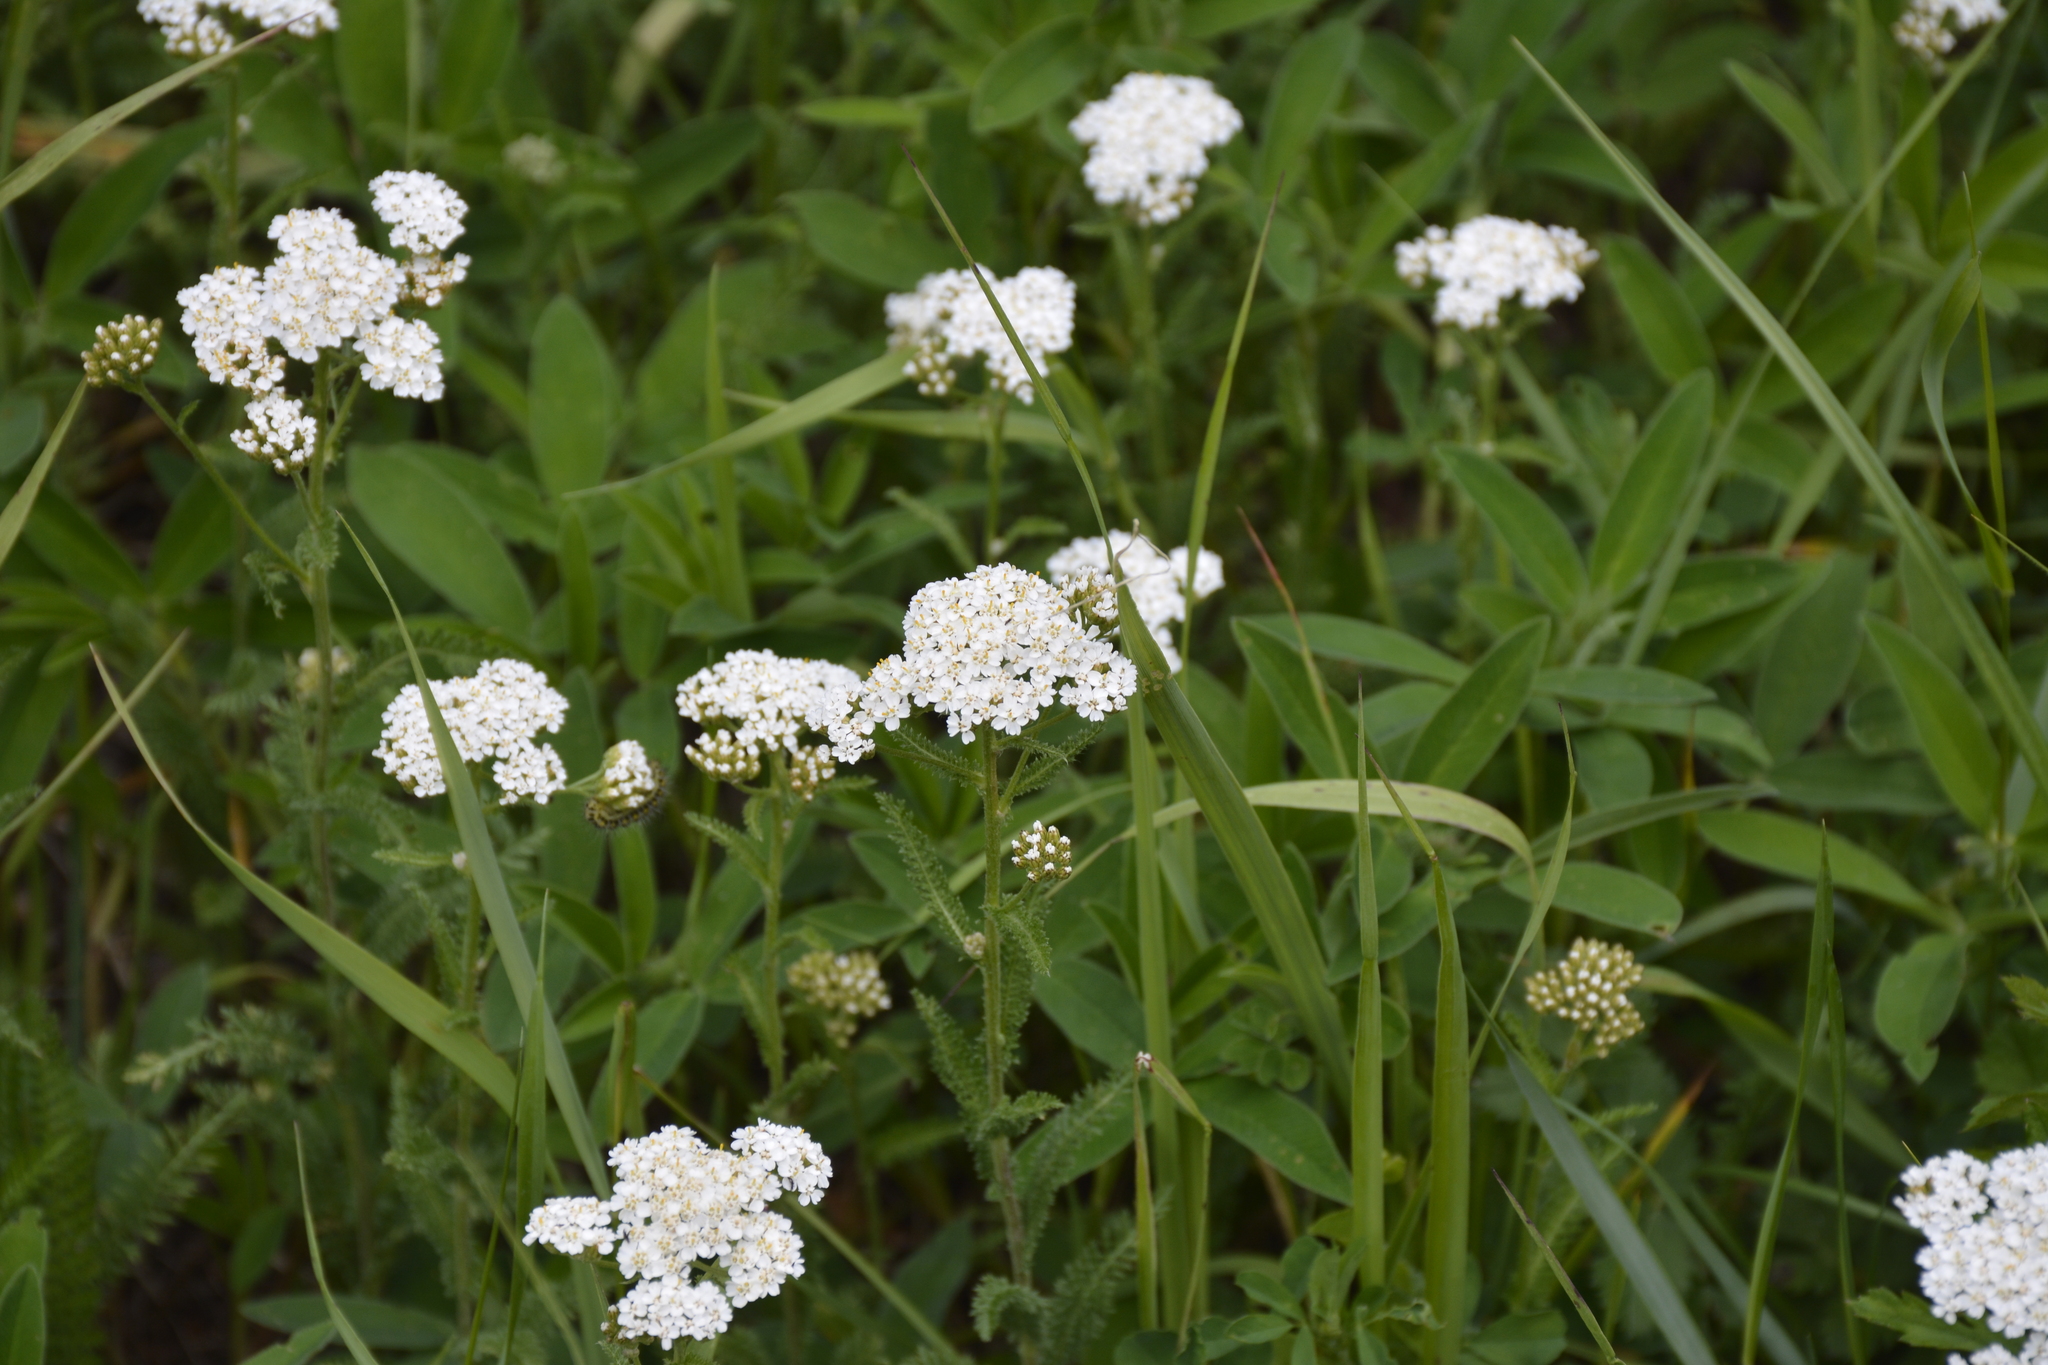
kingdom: Plantae
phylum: Tracheophyta
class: Magnoliopsida
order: Asterales
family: Asteraceae
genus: Achillea
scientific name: Achillea millefolium
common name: Yarrow
